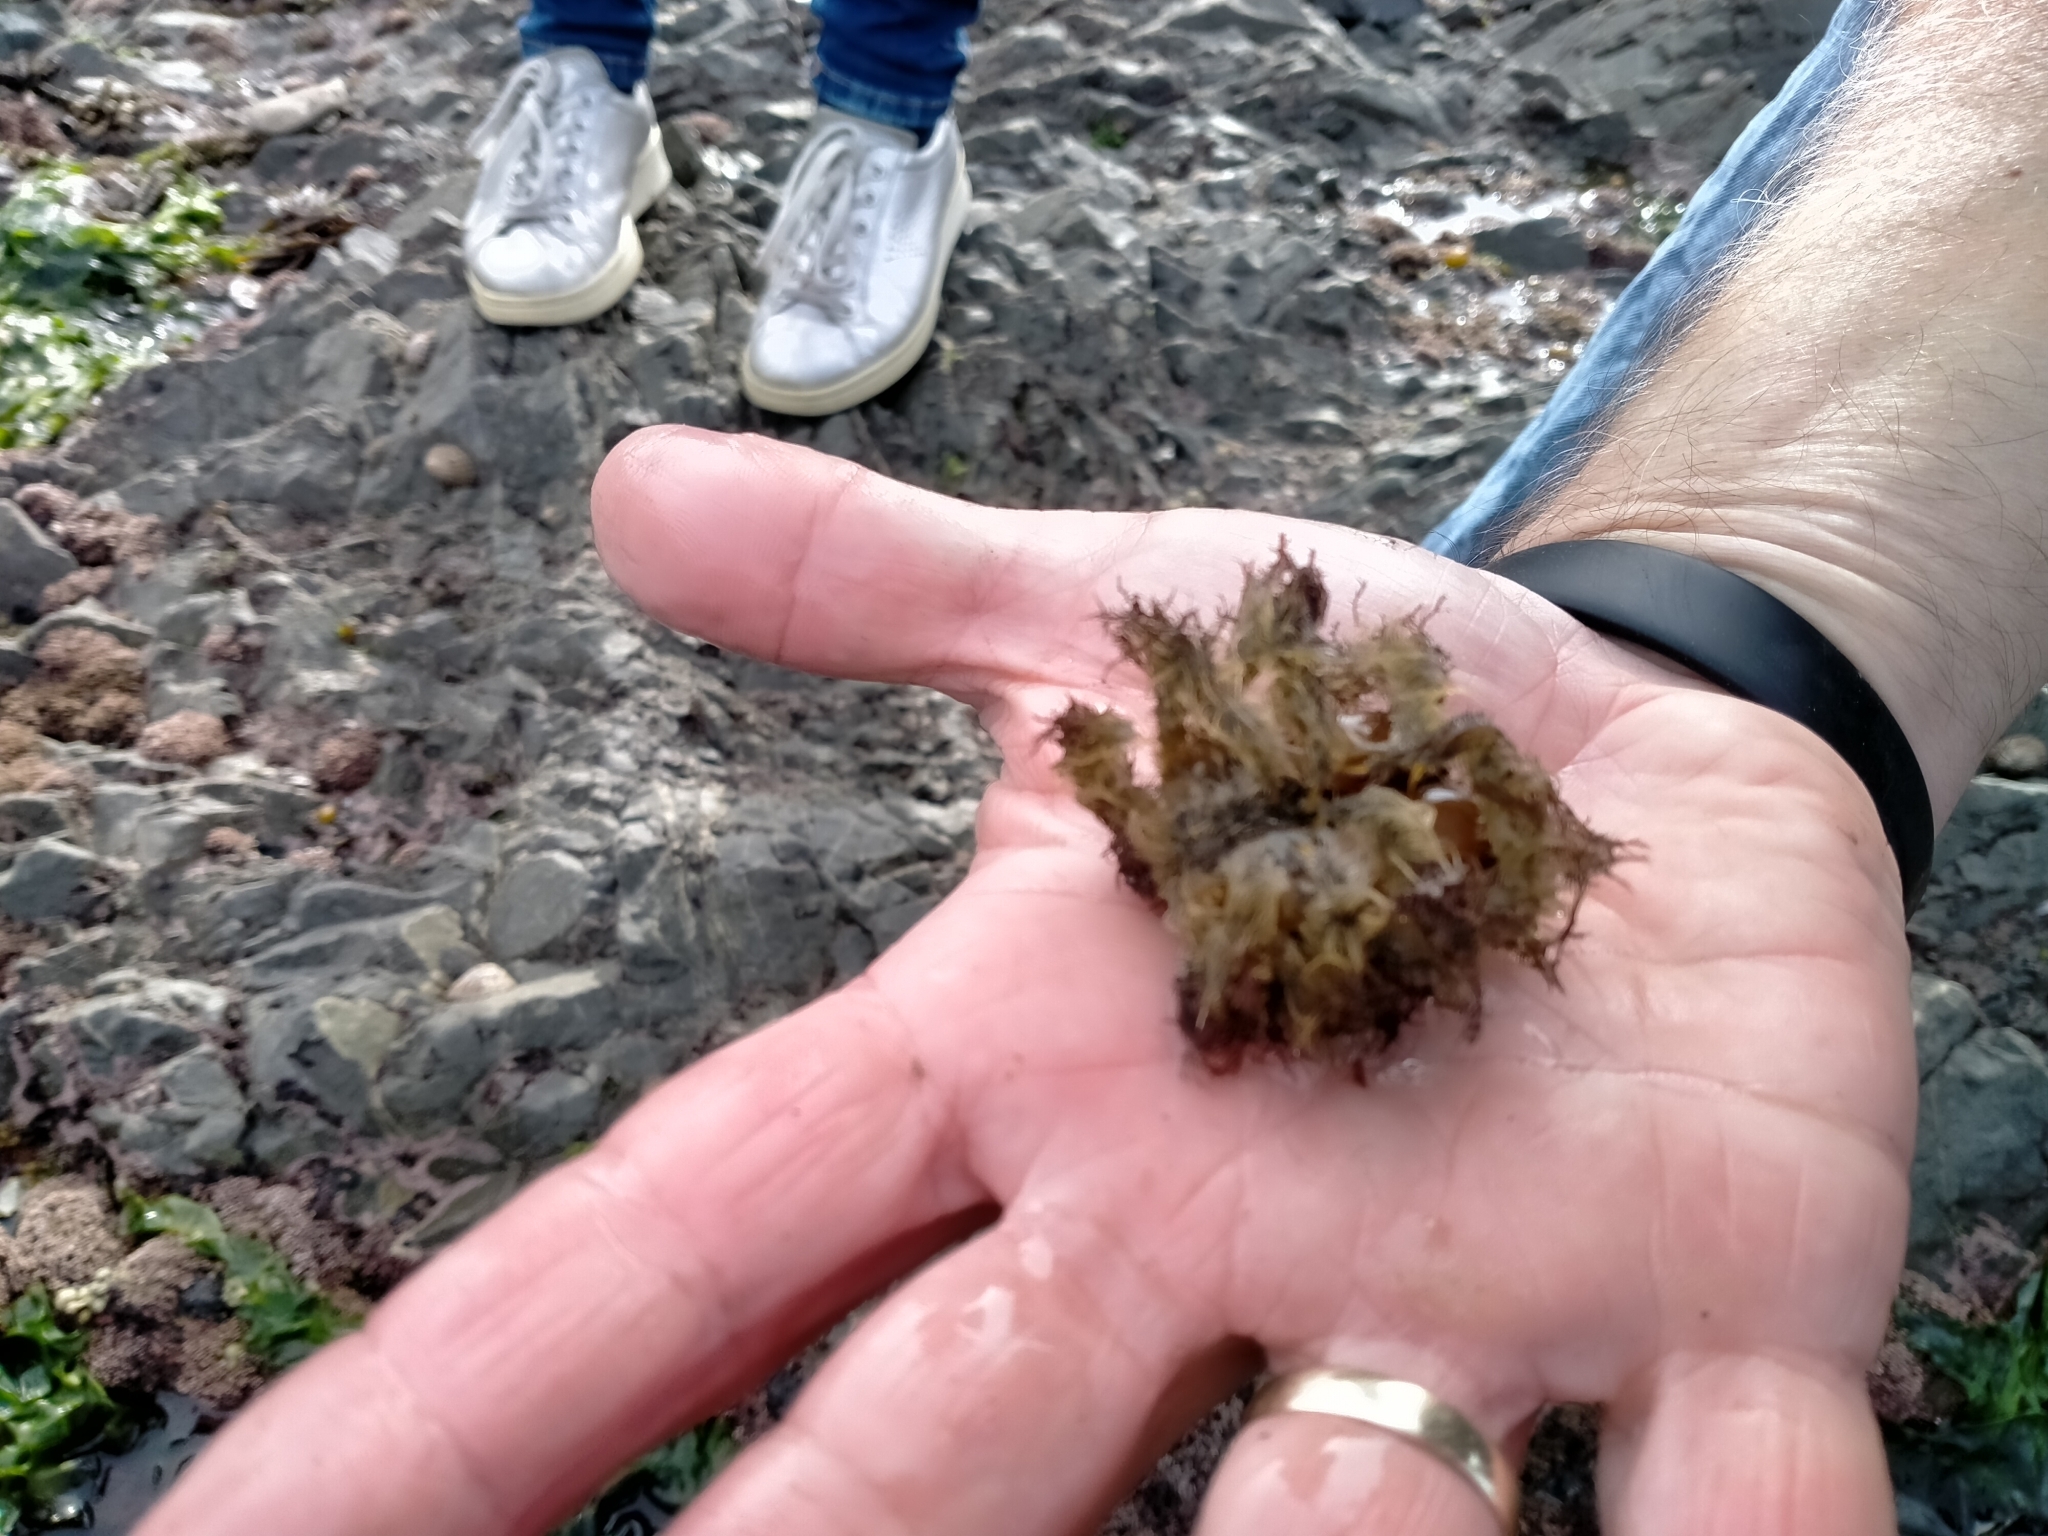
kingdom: Animalia
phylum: Arthropoda
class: Malacostraca
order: Decapoda
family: Majidae
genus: Notomithrax
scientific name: Notomithrax ursus
